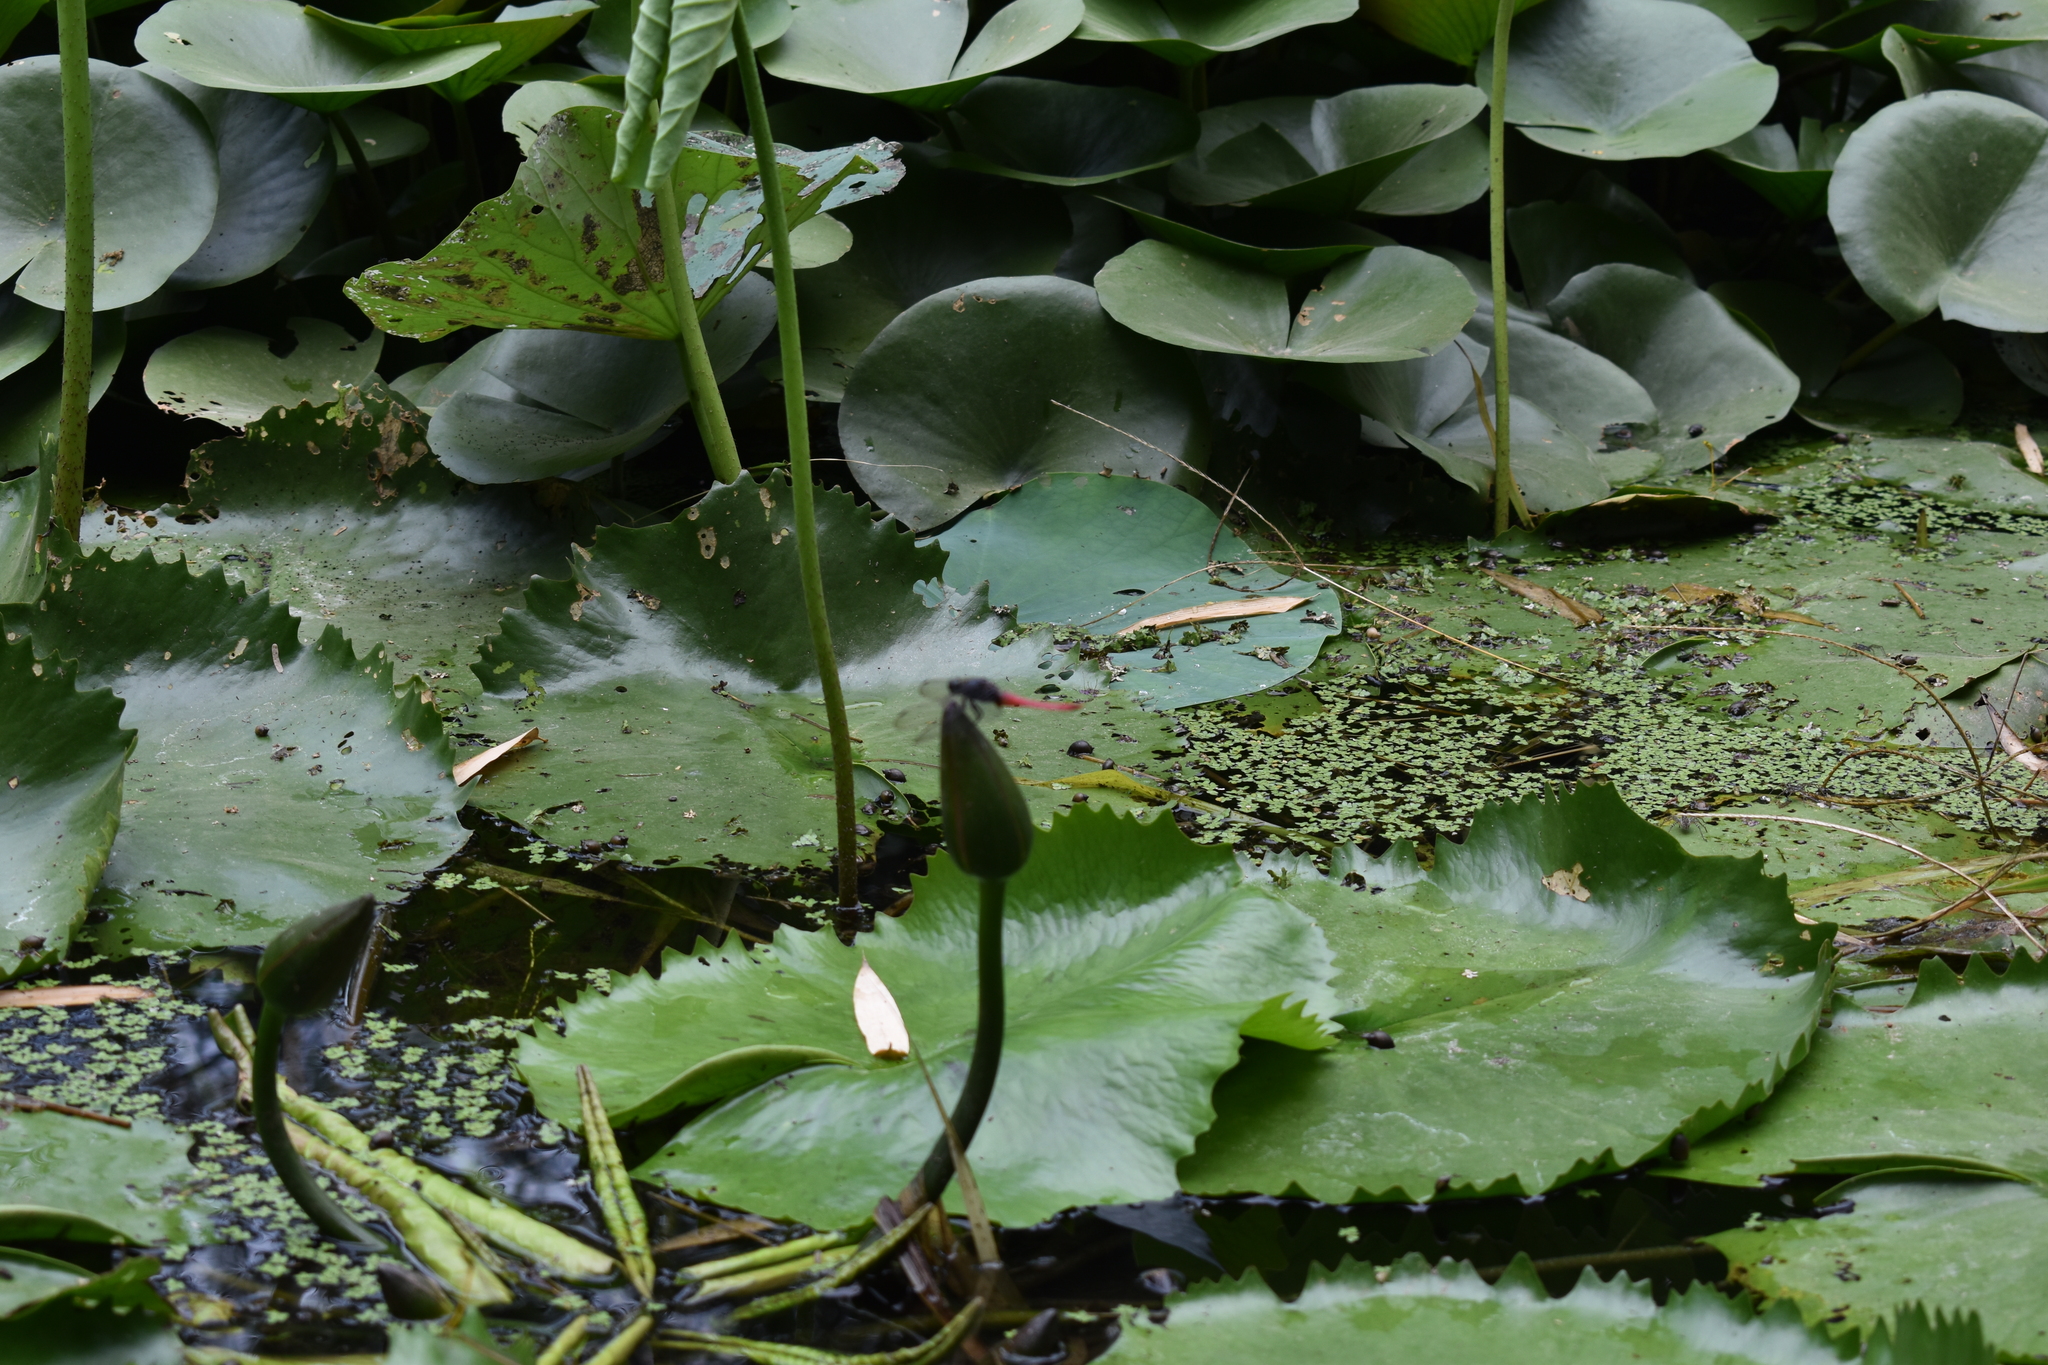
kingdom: Animalia
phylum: Arthropoda
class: Insecta
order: Odonata
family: Libellulidae
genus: Orthetrum
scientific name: Orthetrum pruinosum
